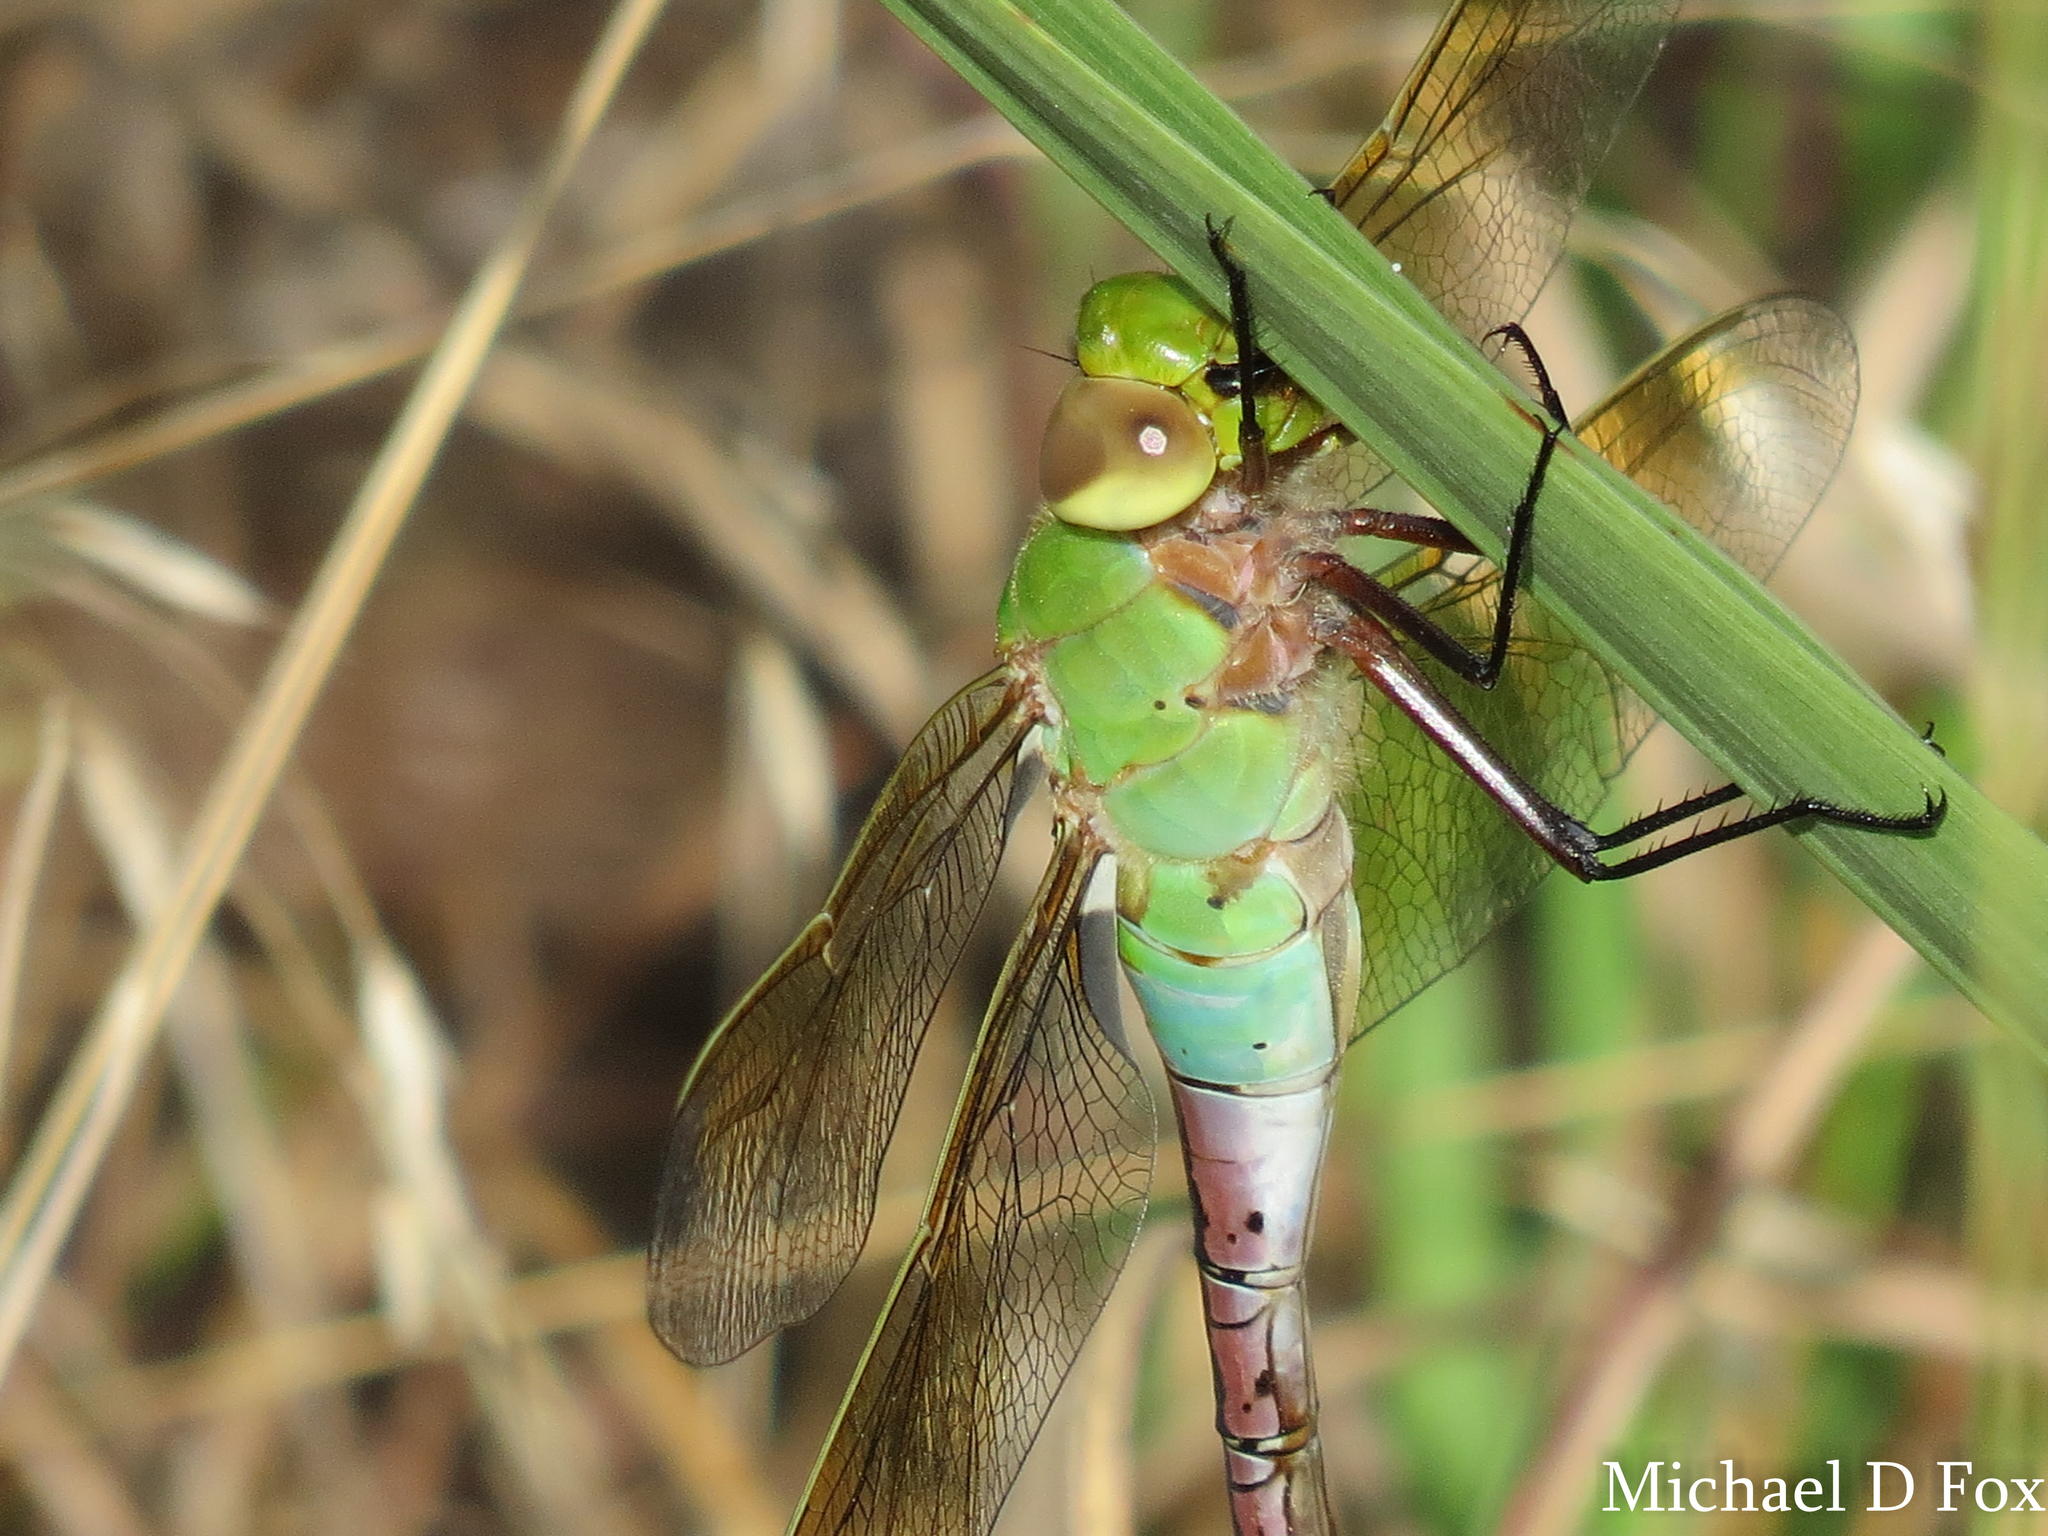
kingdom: Animalia
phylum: Arthropoda
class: Insecta
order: Odonata
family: Aeshnidae
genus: Anax
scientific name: Anax junius
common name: Common green darner
